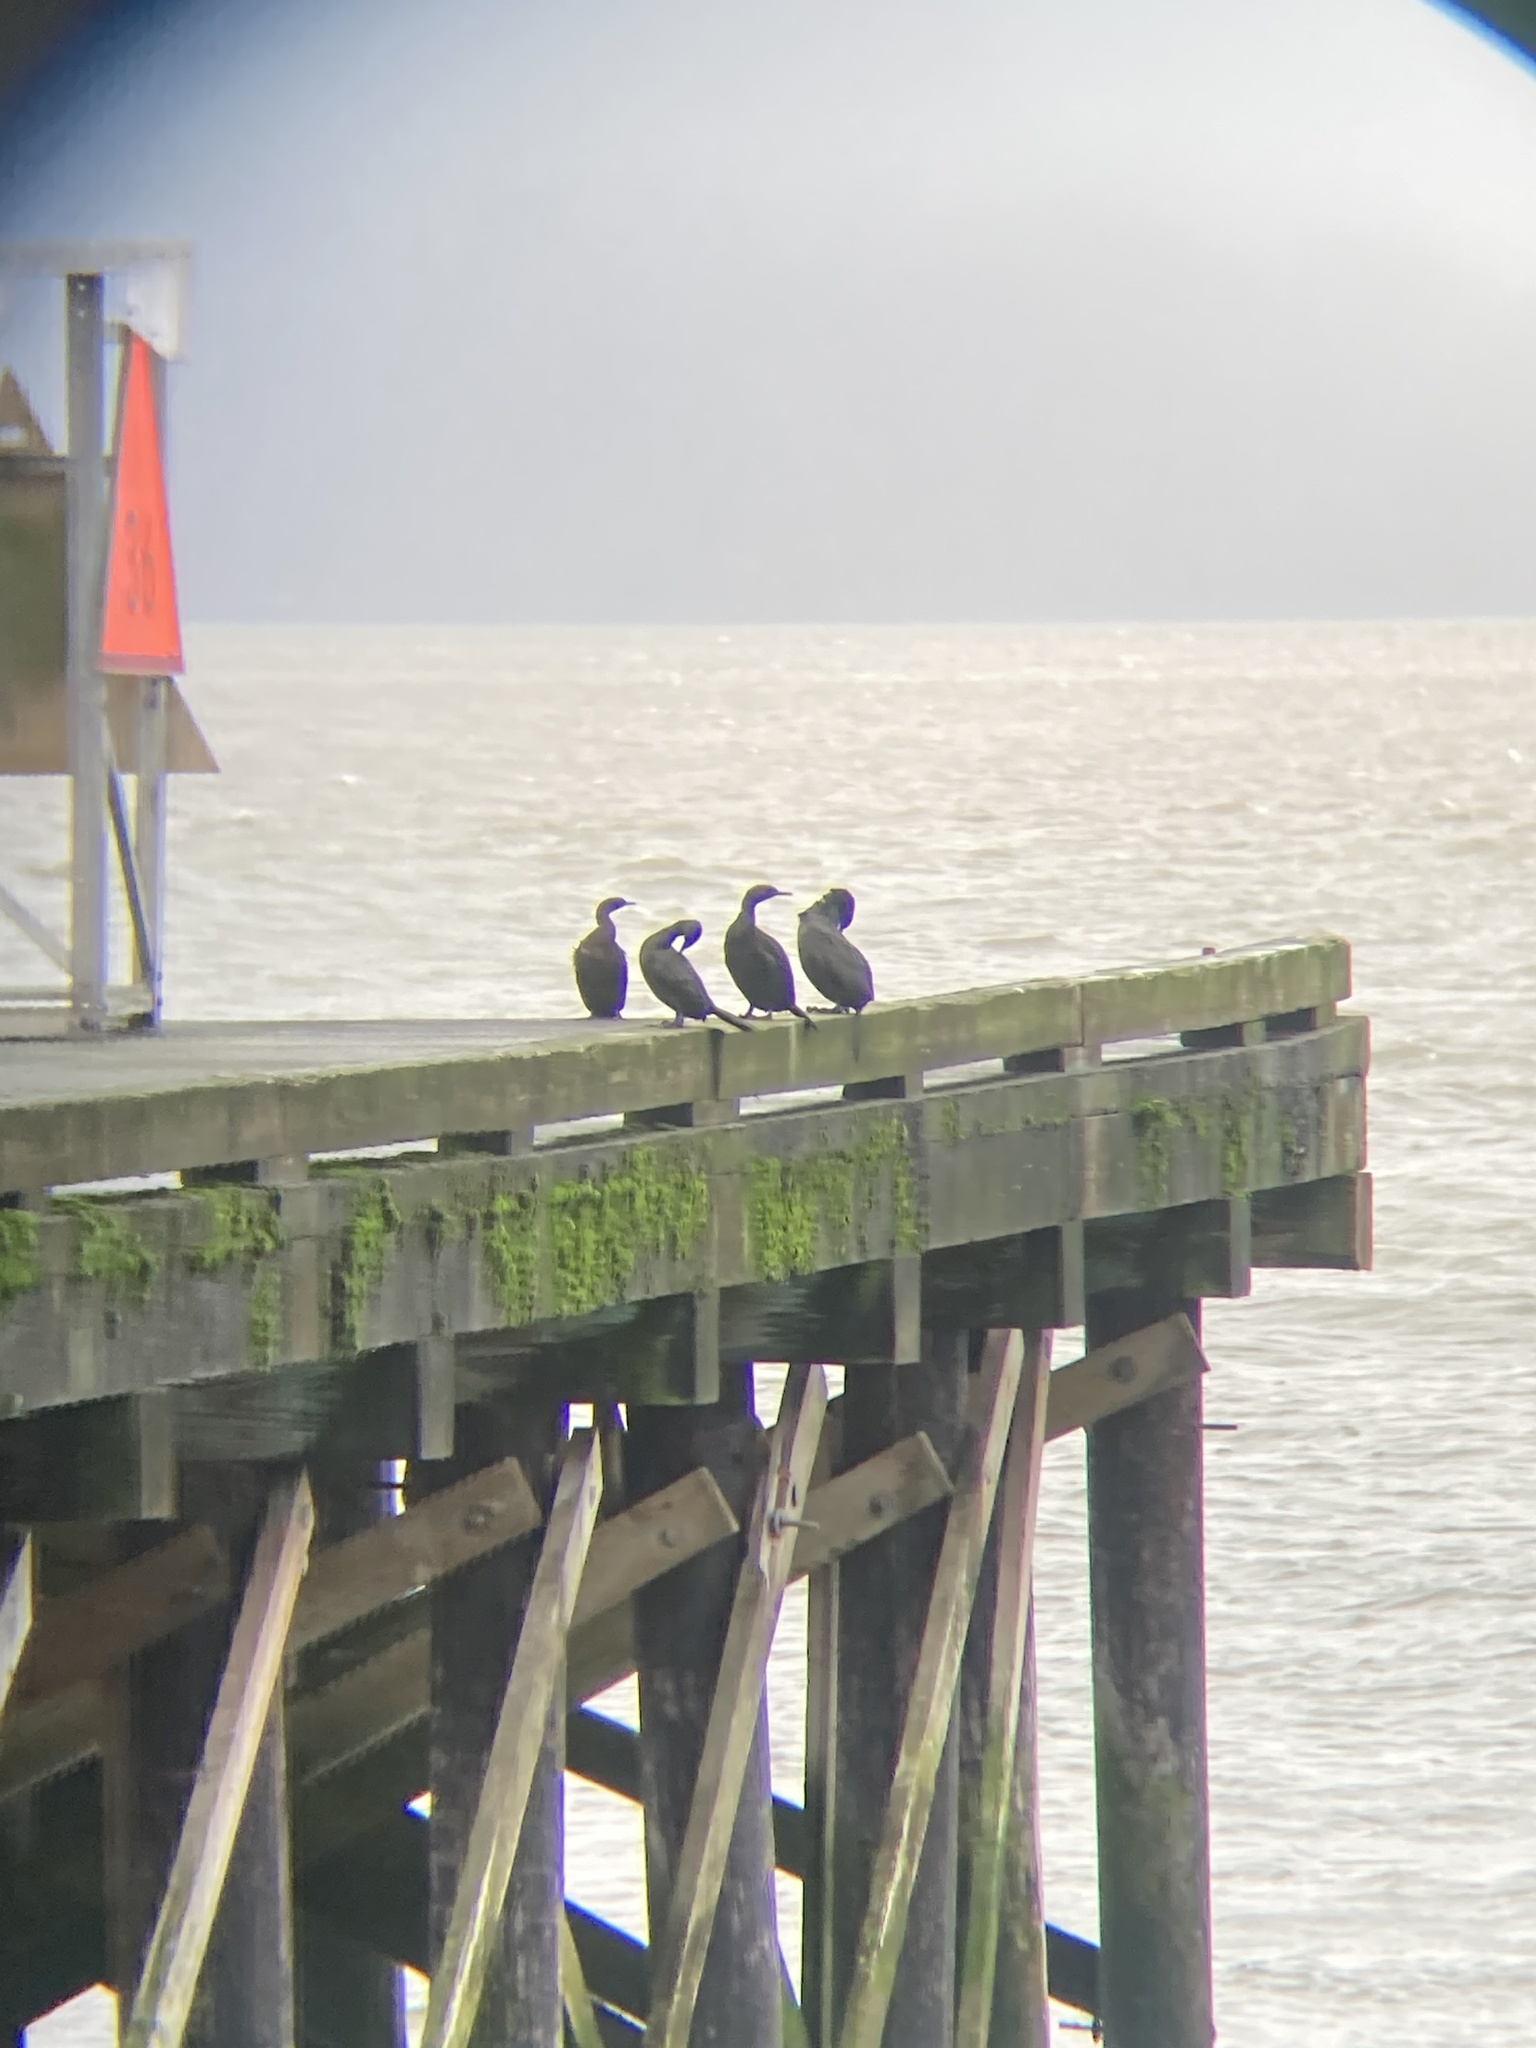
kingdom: Animalia
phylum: Chordata
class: Aves
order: Suliformes
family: Phalacrocoracidae
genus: Phalacrocorax
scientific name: Phalacrocorax pelagicus
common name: Pelagic cormorant
